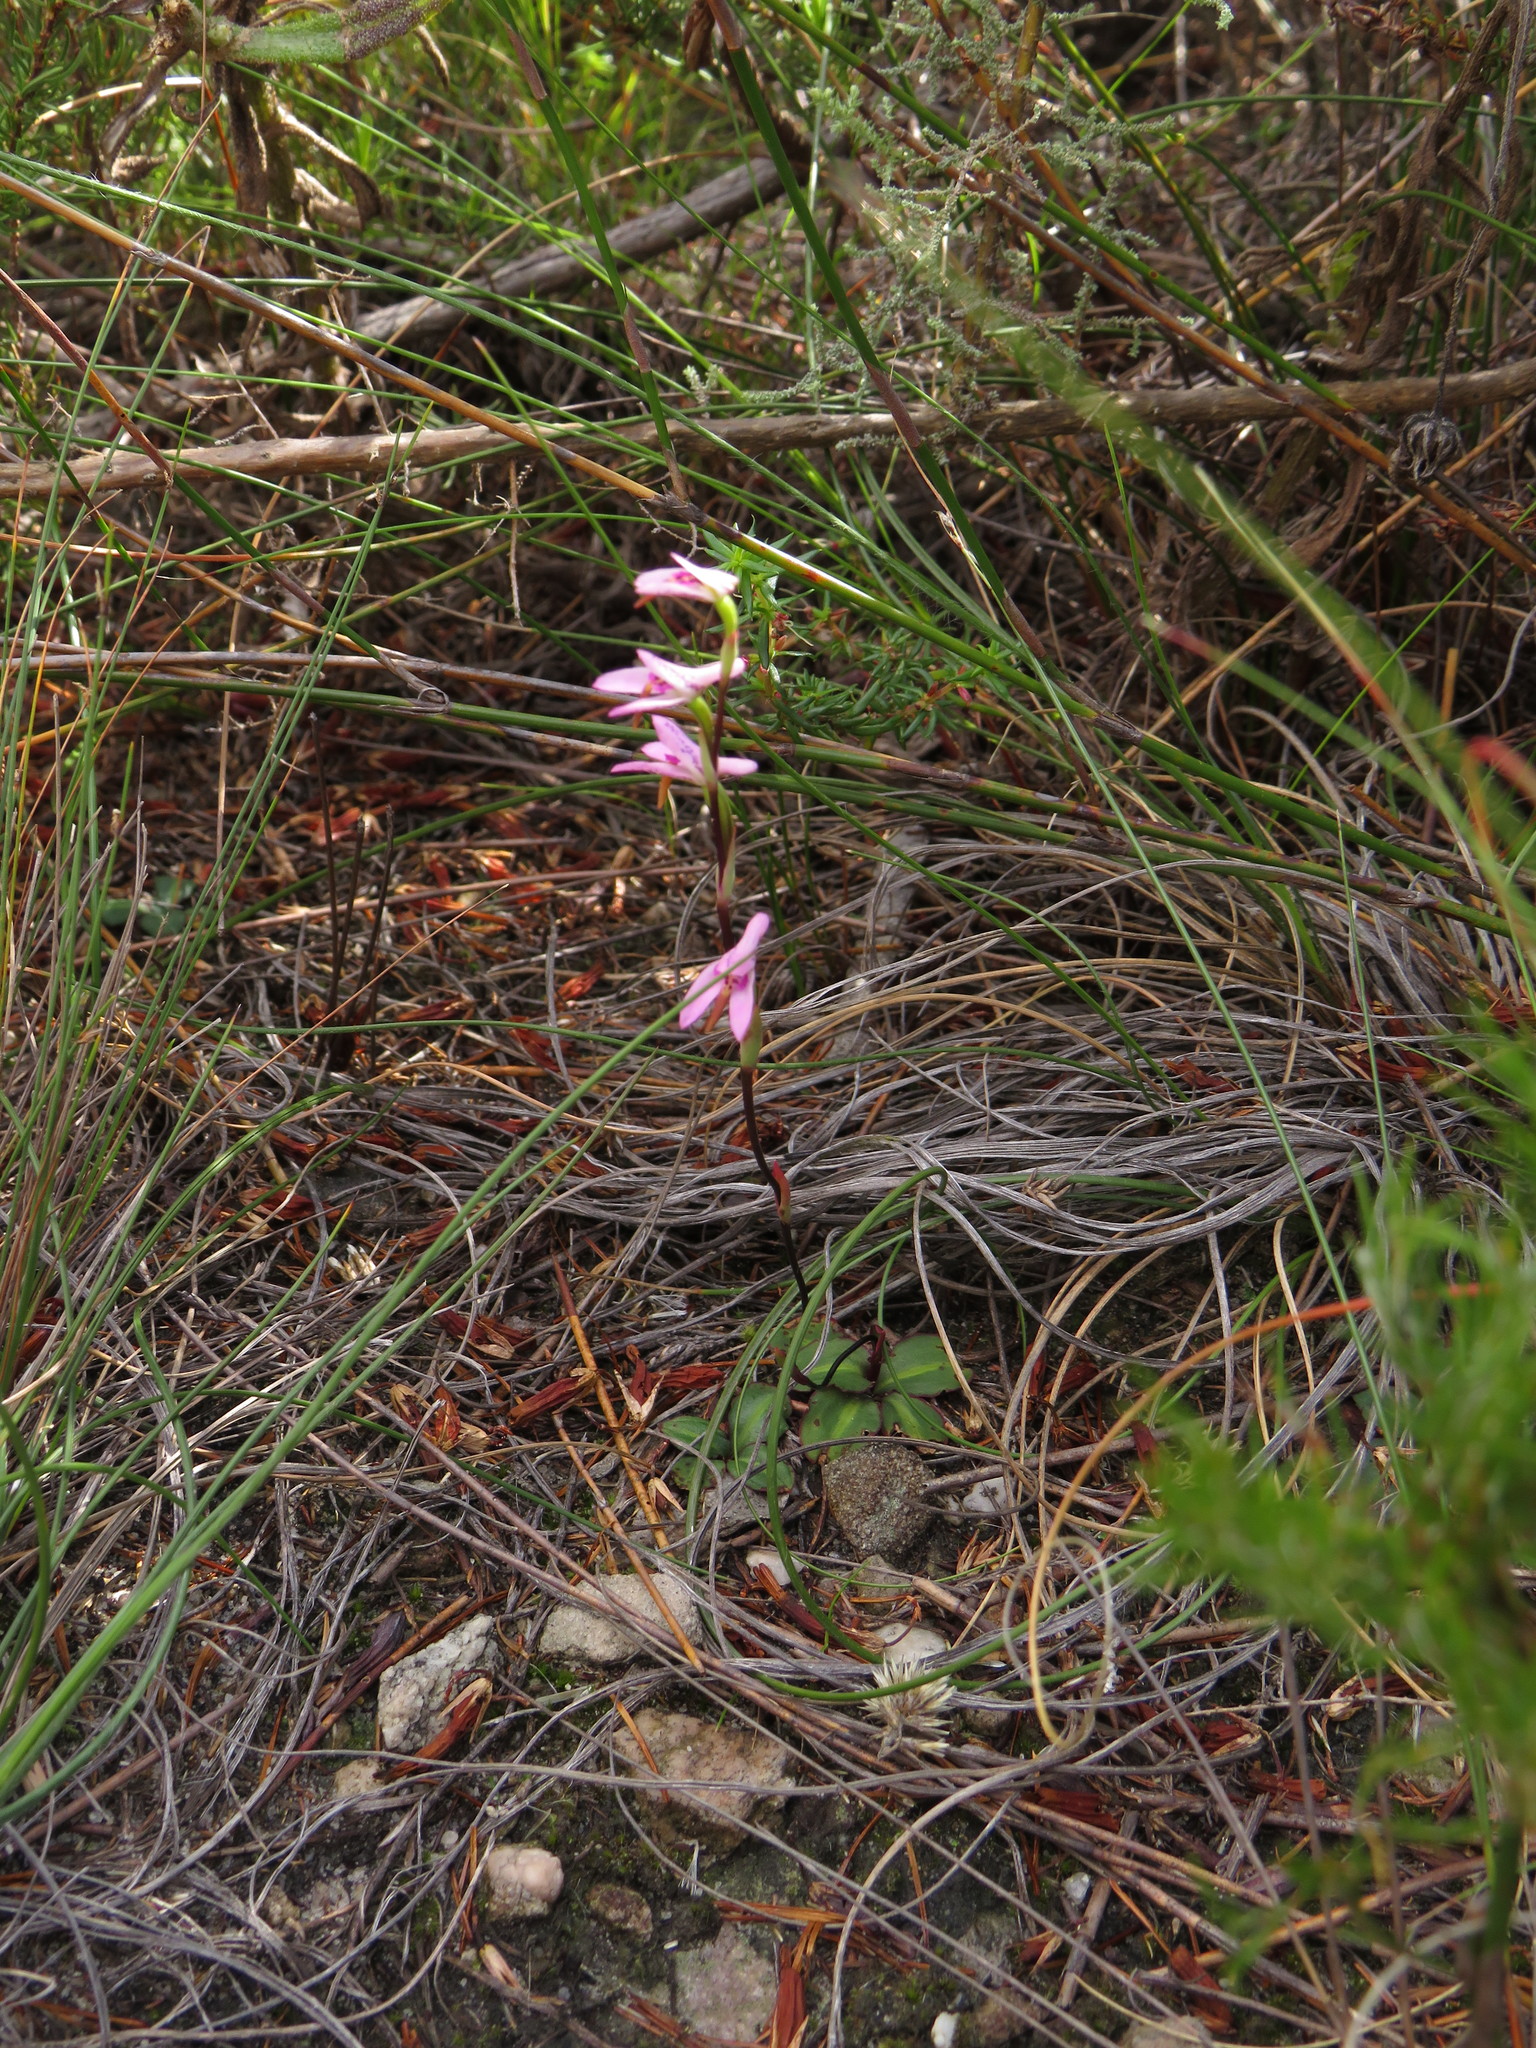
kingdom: Plantae
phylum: Tracheophyta
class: Liliopsida
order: Asparagales
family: Orchidaceae
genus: Disa
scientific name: Disa obliqua
